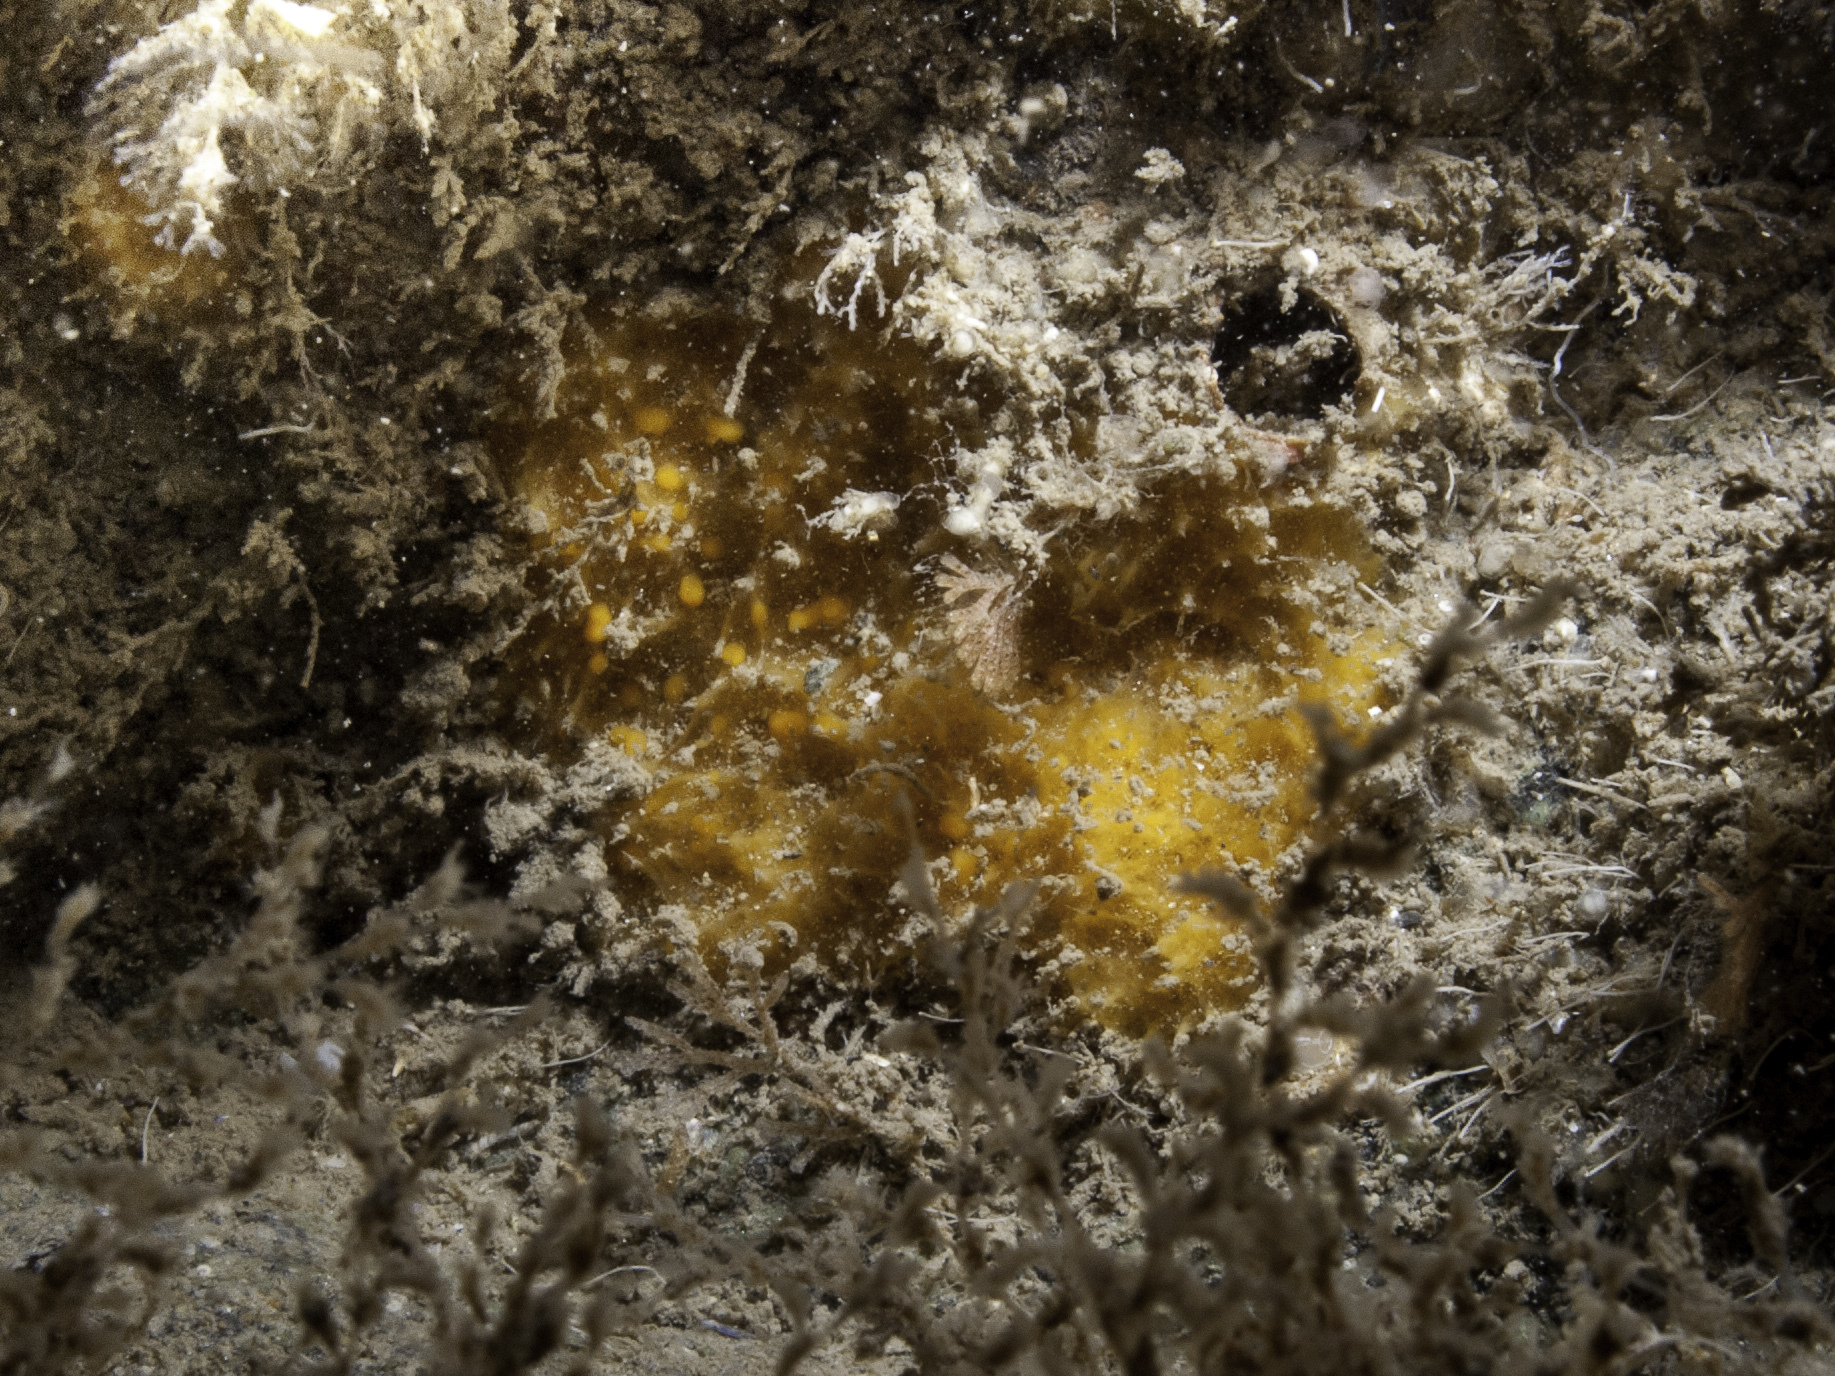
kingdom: Animalia
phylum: Porifera
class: Demospongiae
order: Axinellida
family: Stelligeridae
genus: Paratimea
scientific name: Paratimea aurantiaca
